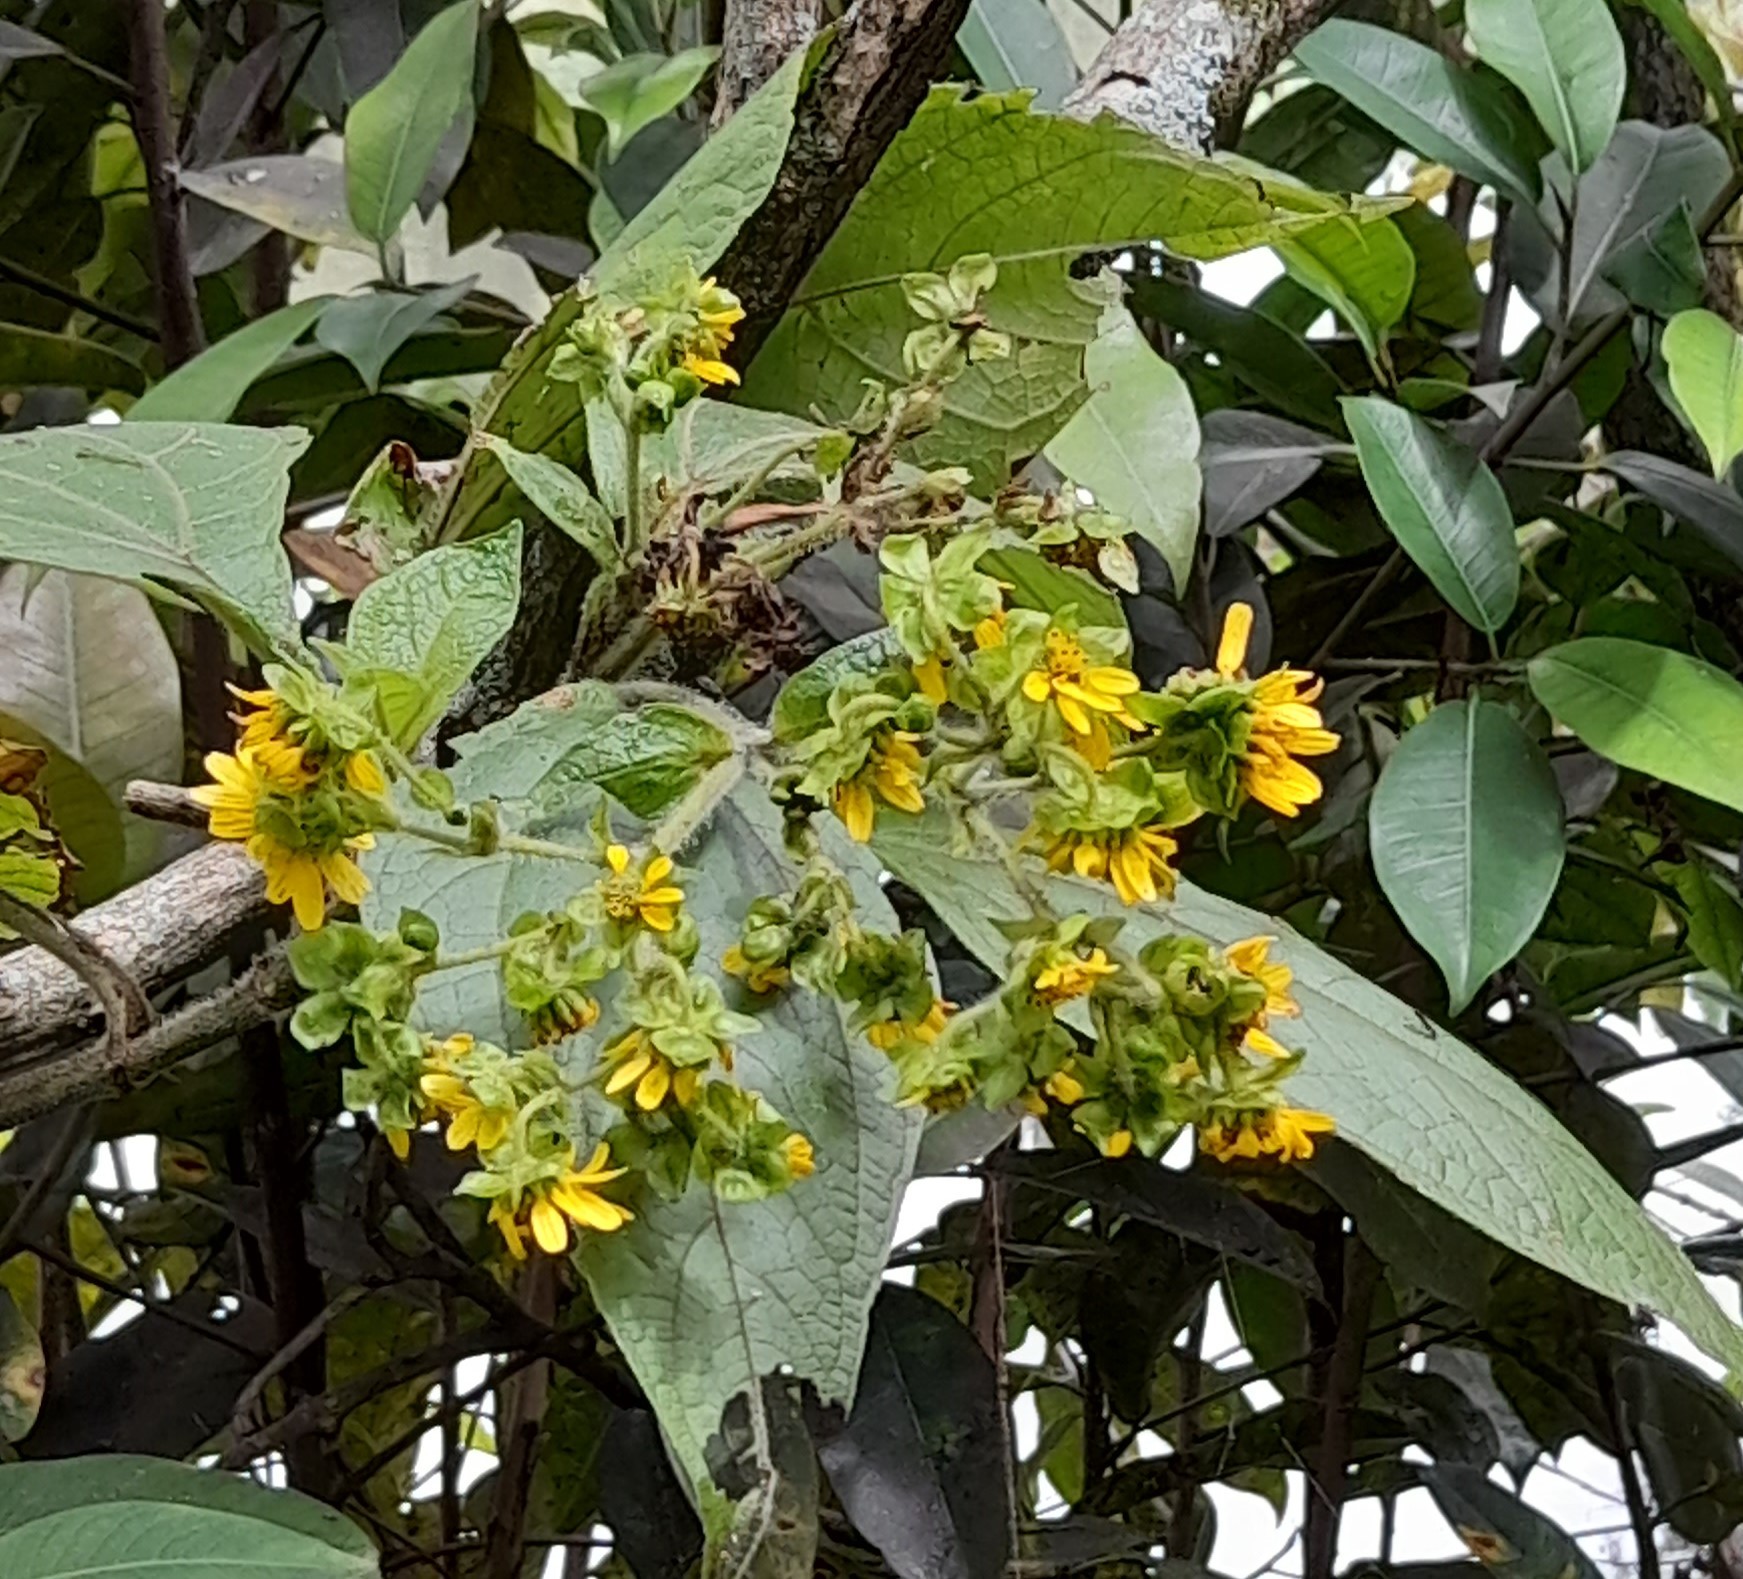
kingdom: Plantae
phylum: Tracheophyta
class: Magnoliopsida
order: Asterales
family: Asteraceae
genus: Smallanthus
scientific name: Smallanthus pyramidalis
